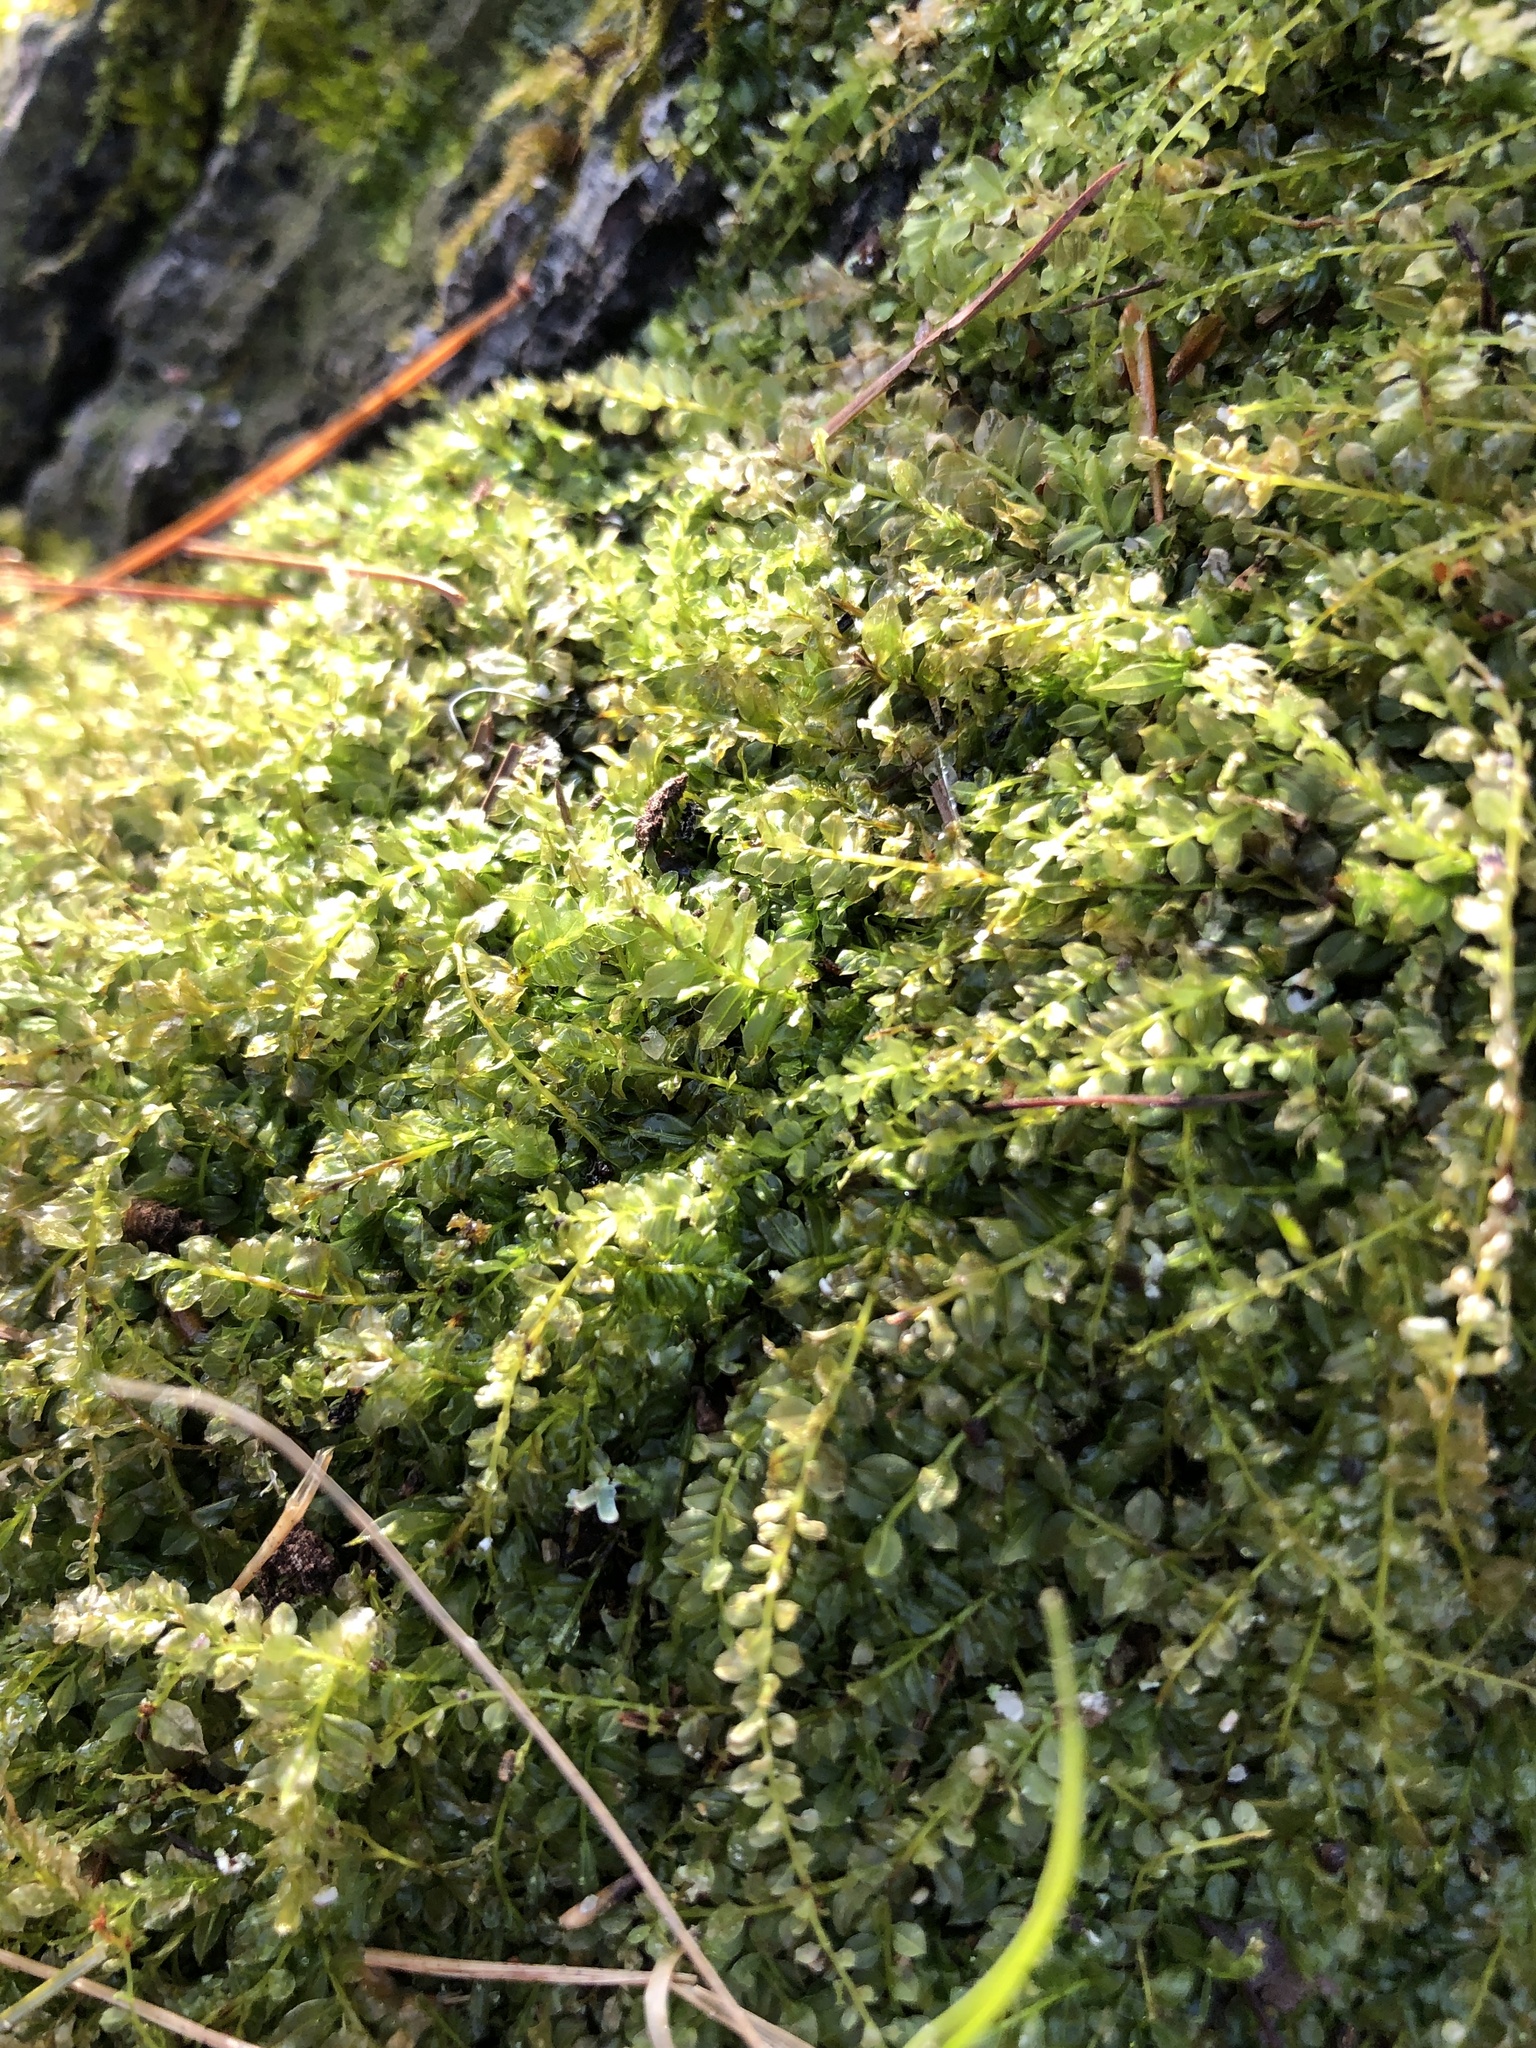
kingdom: Plantae
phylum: Bryophyta
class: Bryopsida
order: Bryales
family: Mniaceae
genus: Plagiomnium
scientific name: Plagiomnium cuspidatum
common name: Woodsy leafy moss
